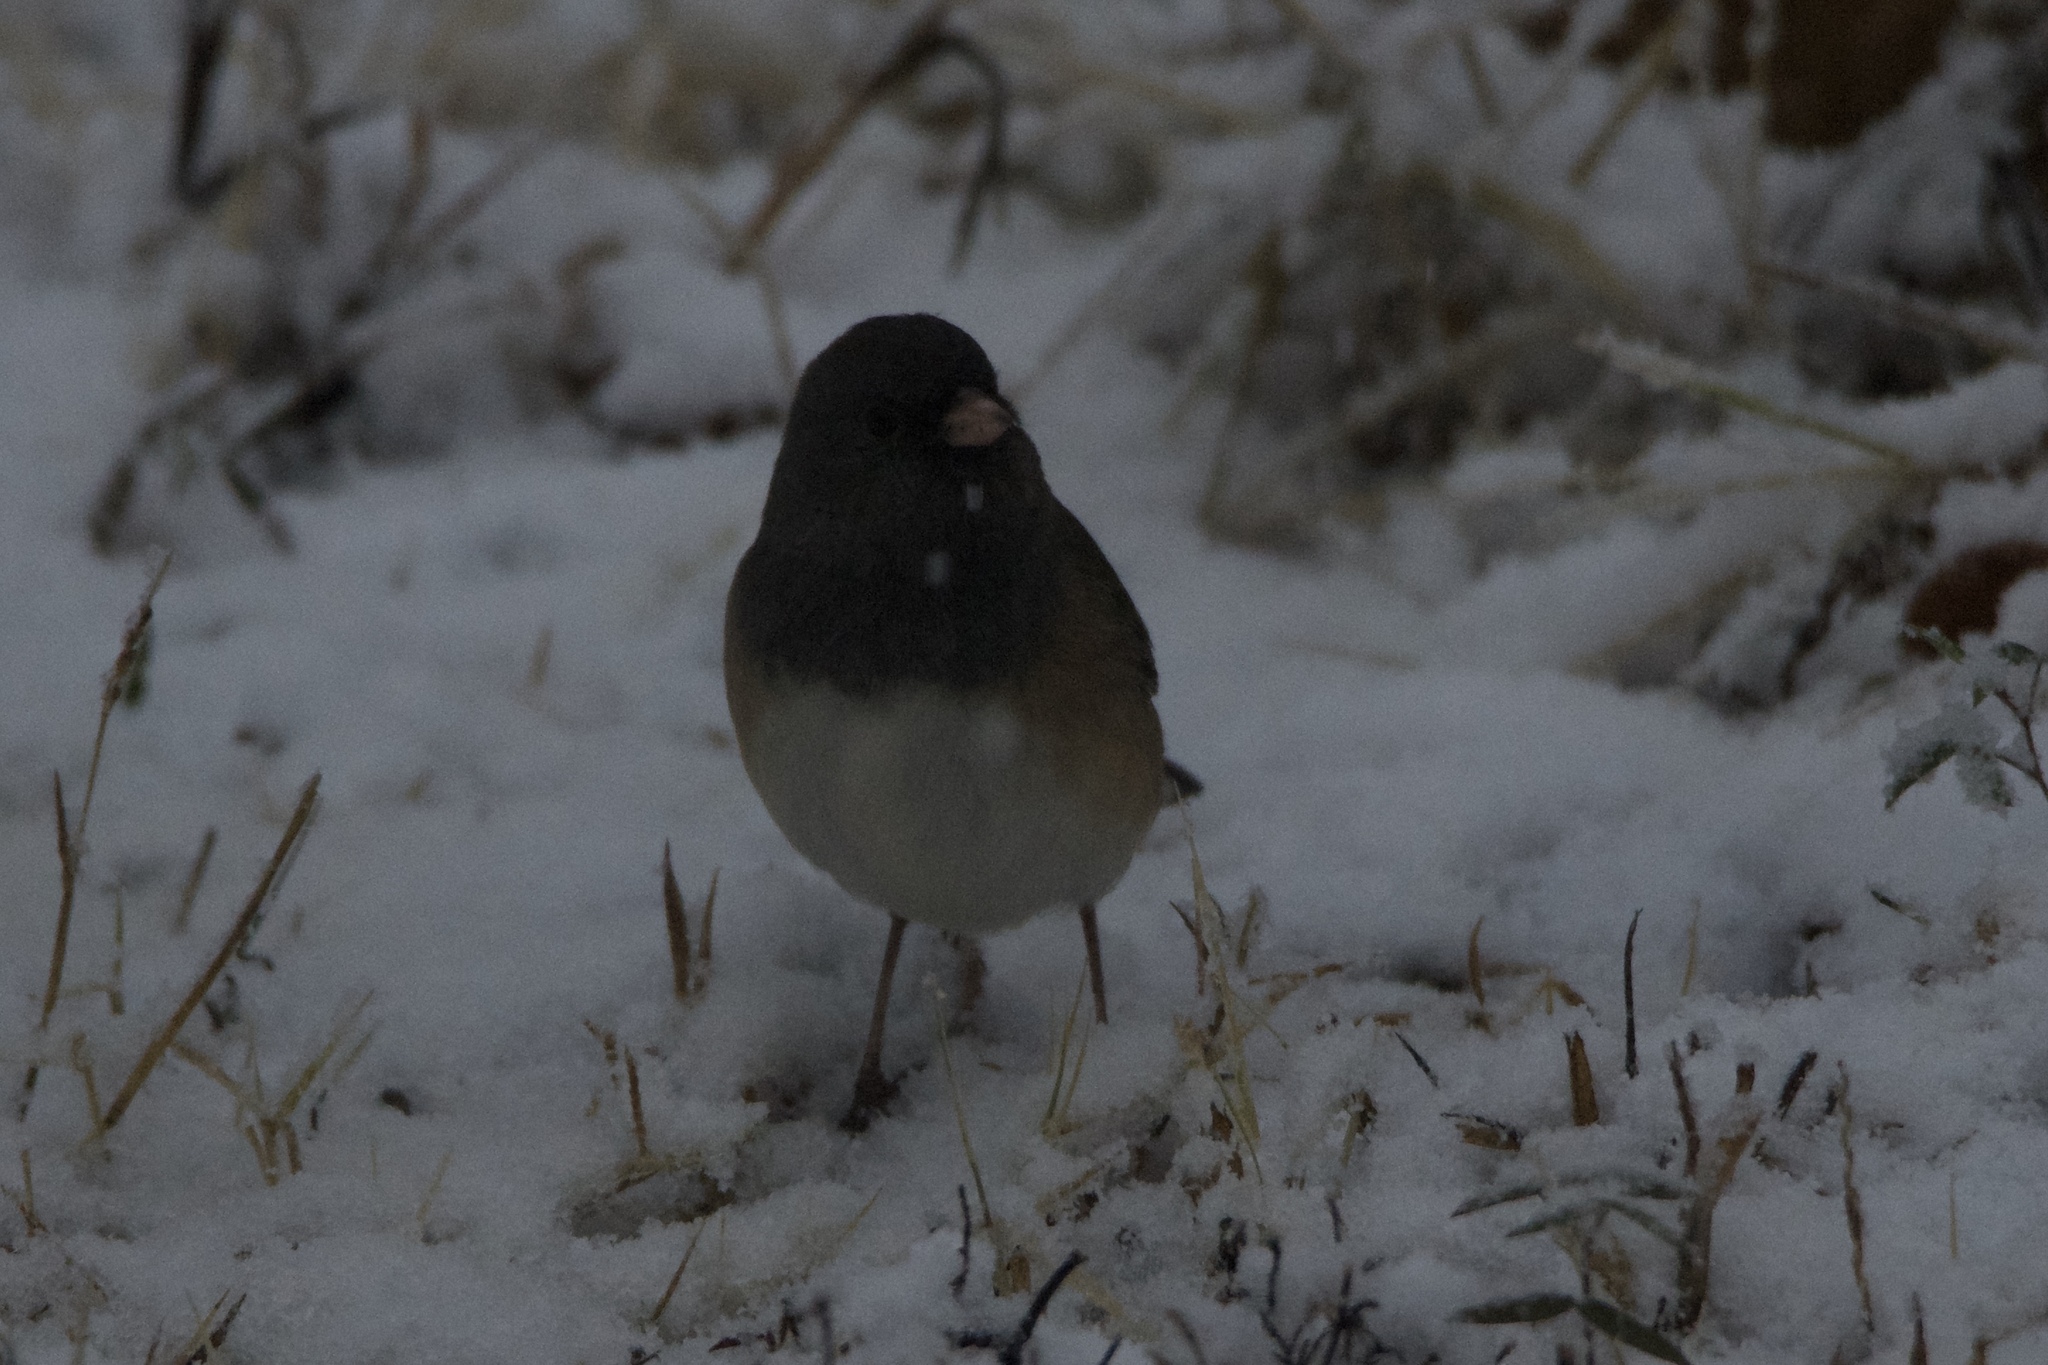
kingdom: Animalia
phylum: Chordata
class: Aves
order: Passeriformes
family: Passerellidae
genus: Junco
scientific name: Junco hyemalis
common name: Dark-eyed junco
